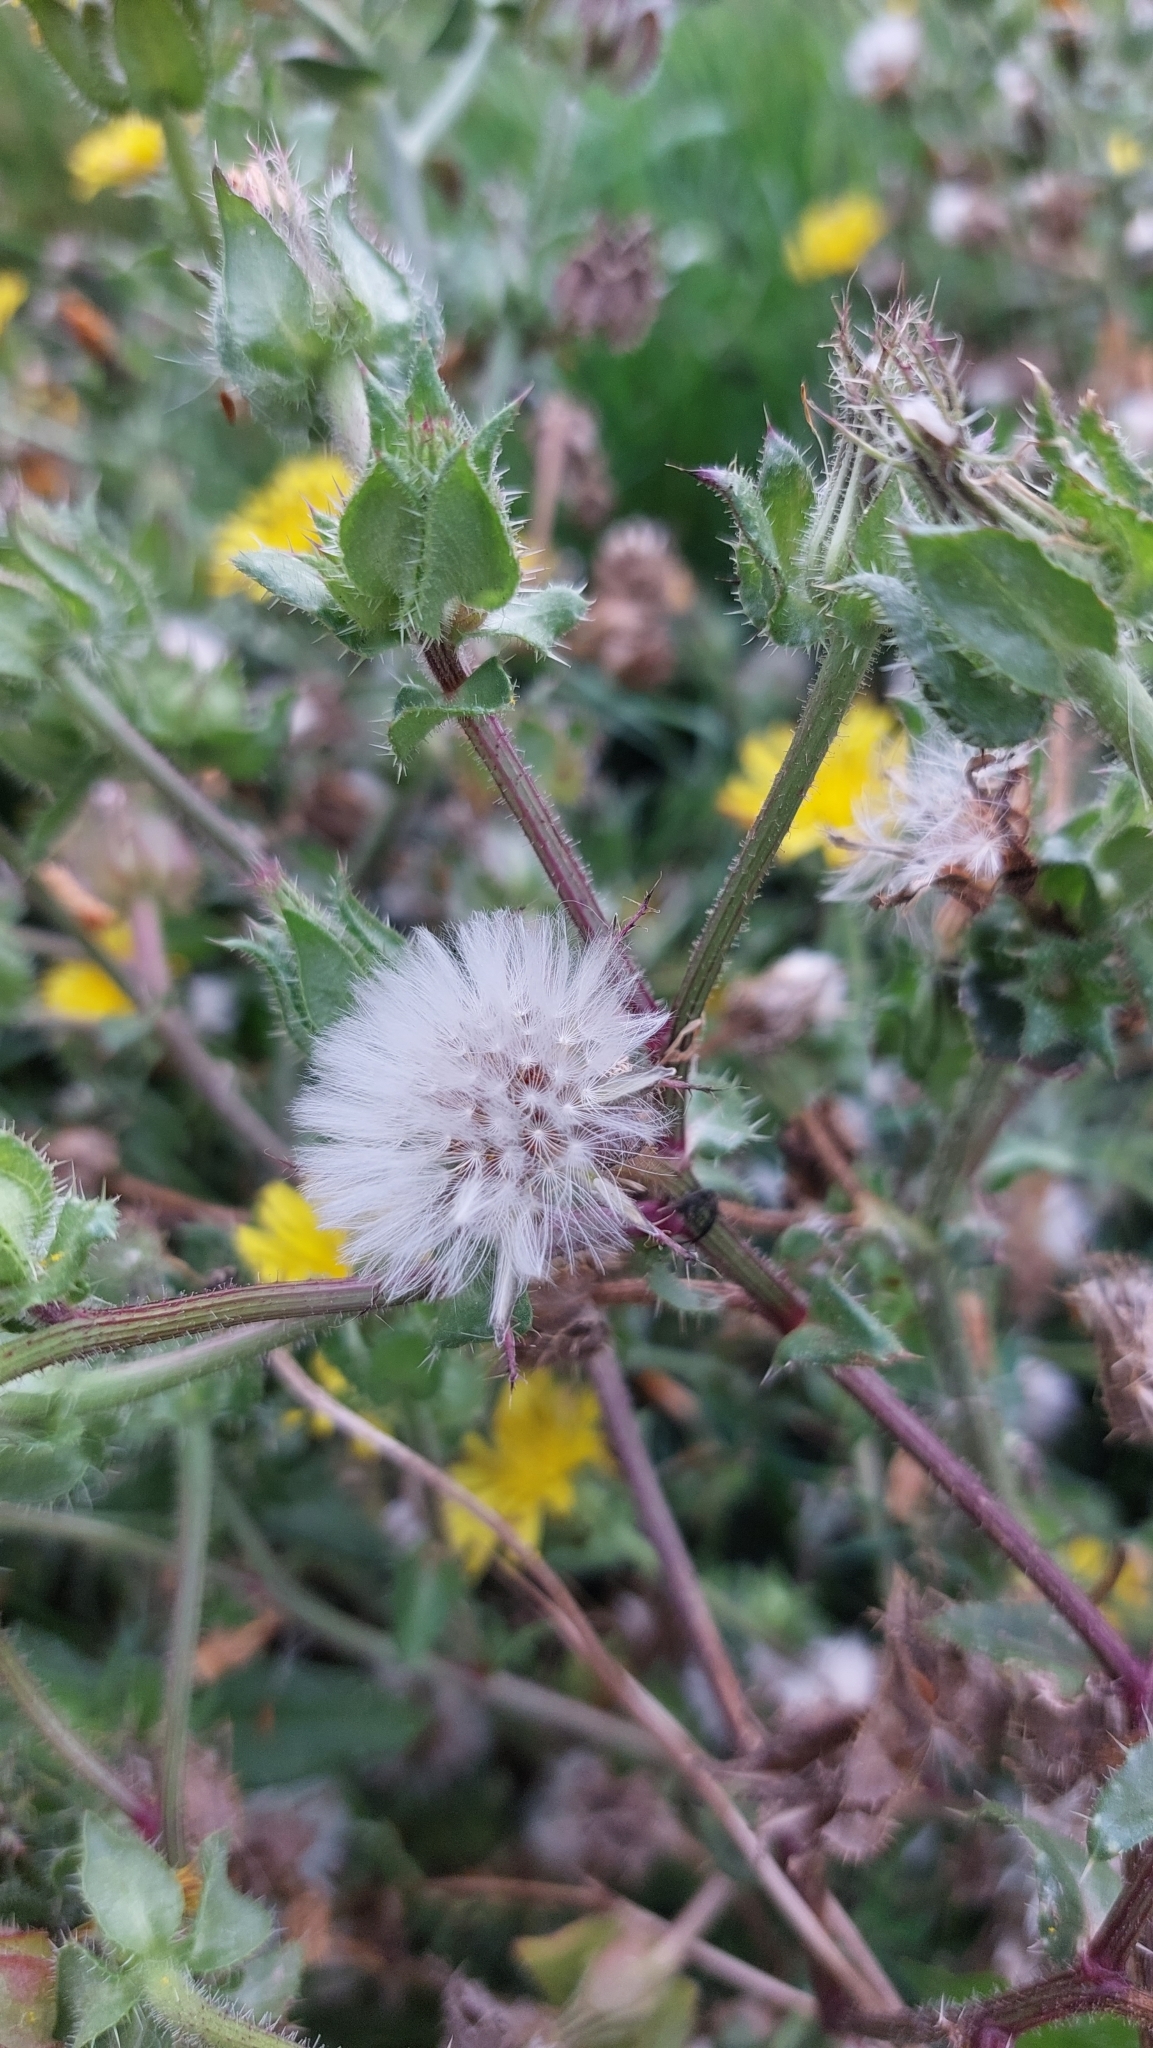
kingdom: Plantae
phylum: Tracheophyta
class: Magnoliopsida
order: Asterales
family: Asteraceae
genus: Helminthotheca
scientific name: Helminthotheca echioides
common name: Ox-tongue
